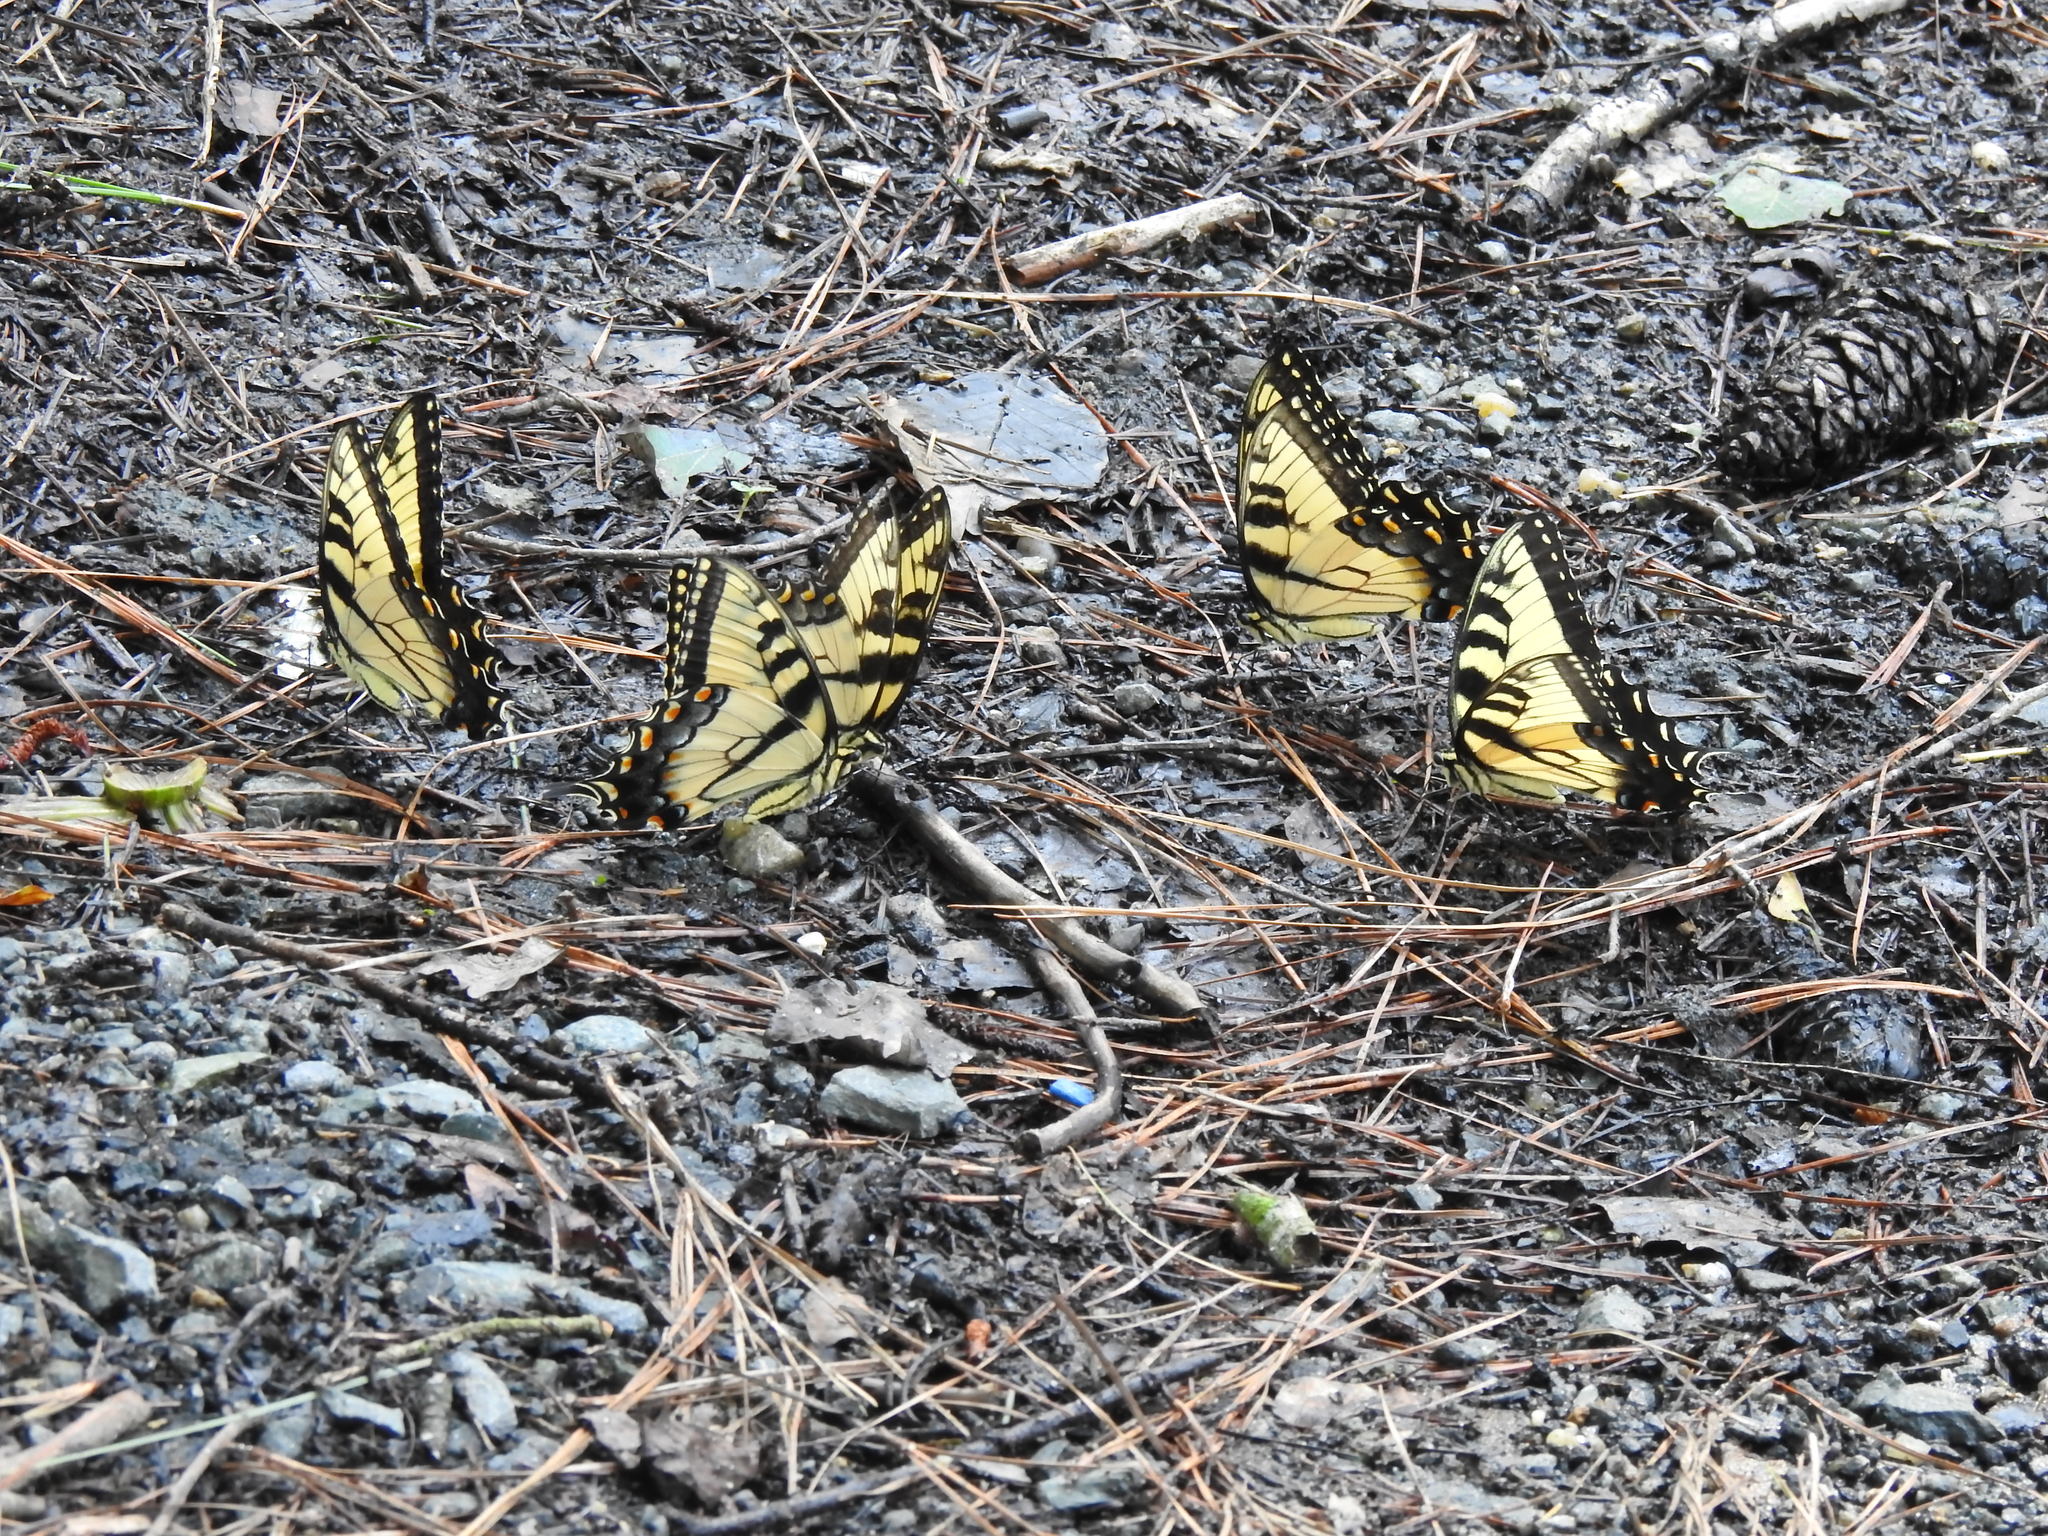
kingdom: Animalia
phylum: Arthropoda
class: Insecta
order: Lepidoptera
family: Papilionidae
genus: Papilio
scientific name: Papilio glaucus
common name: Tiger swallowtail
